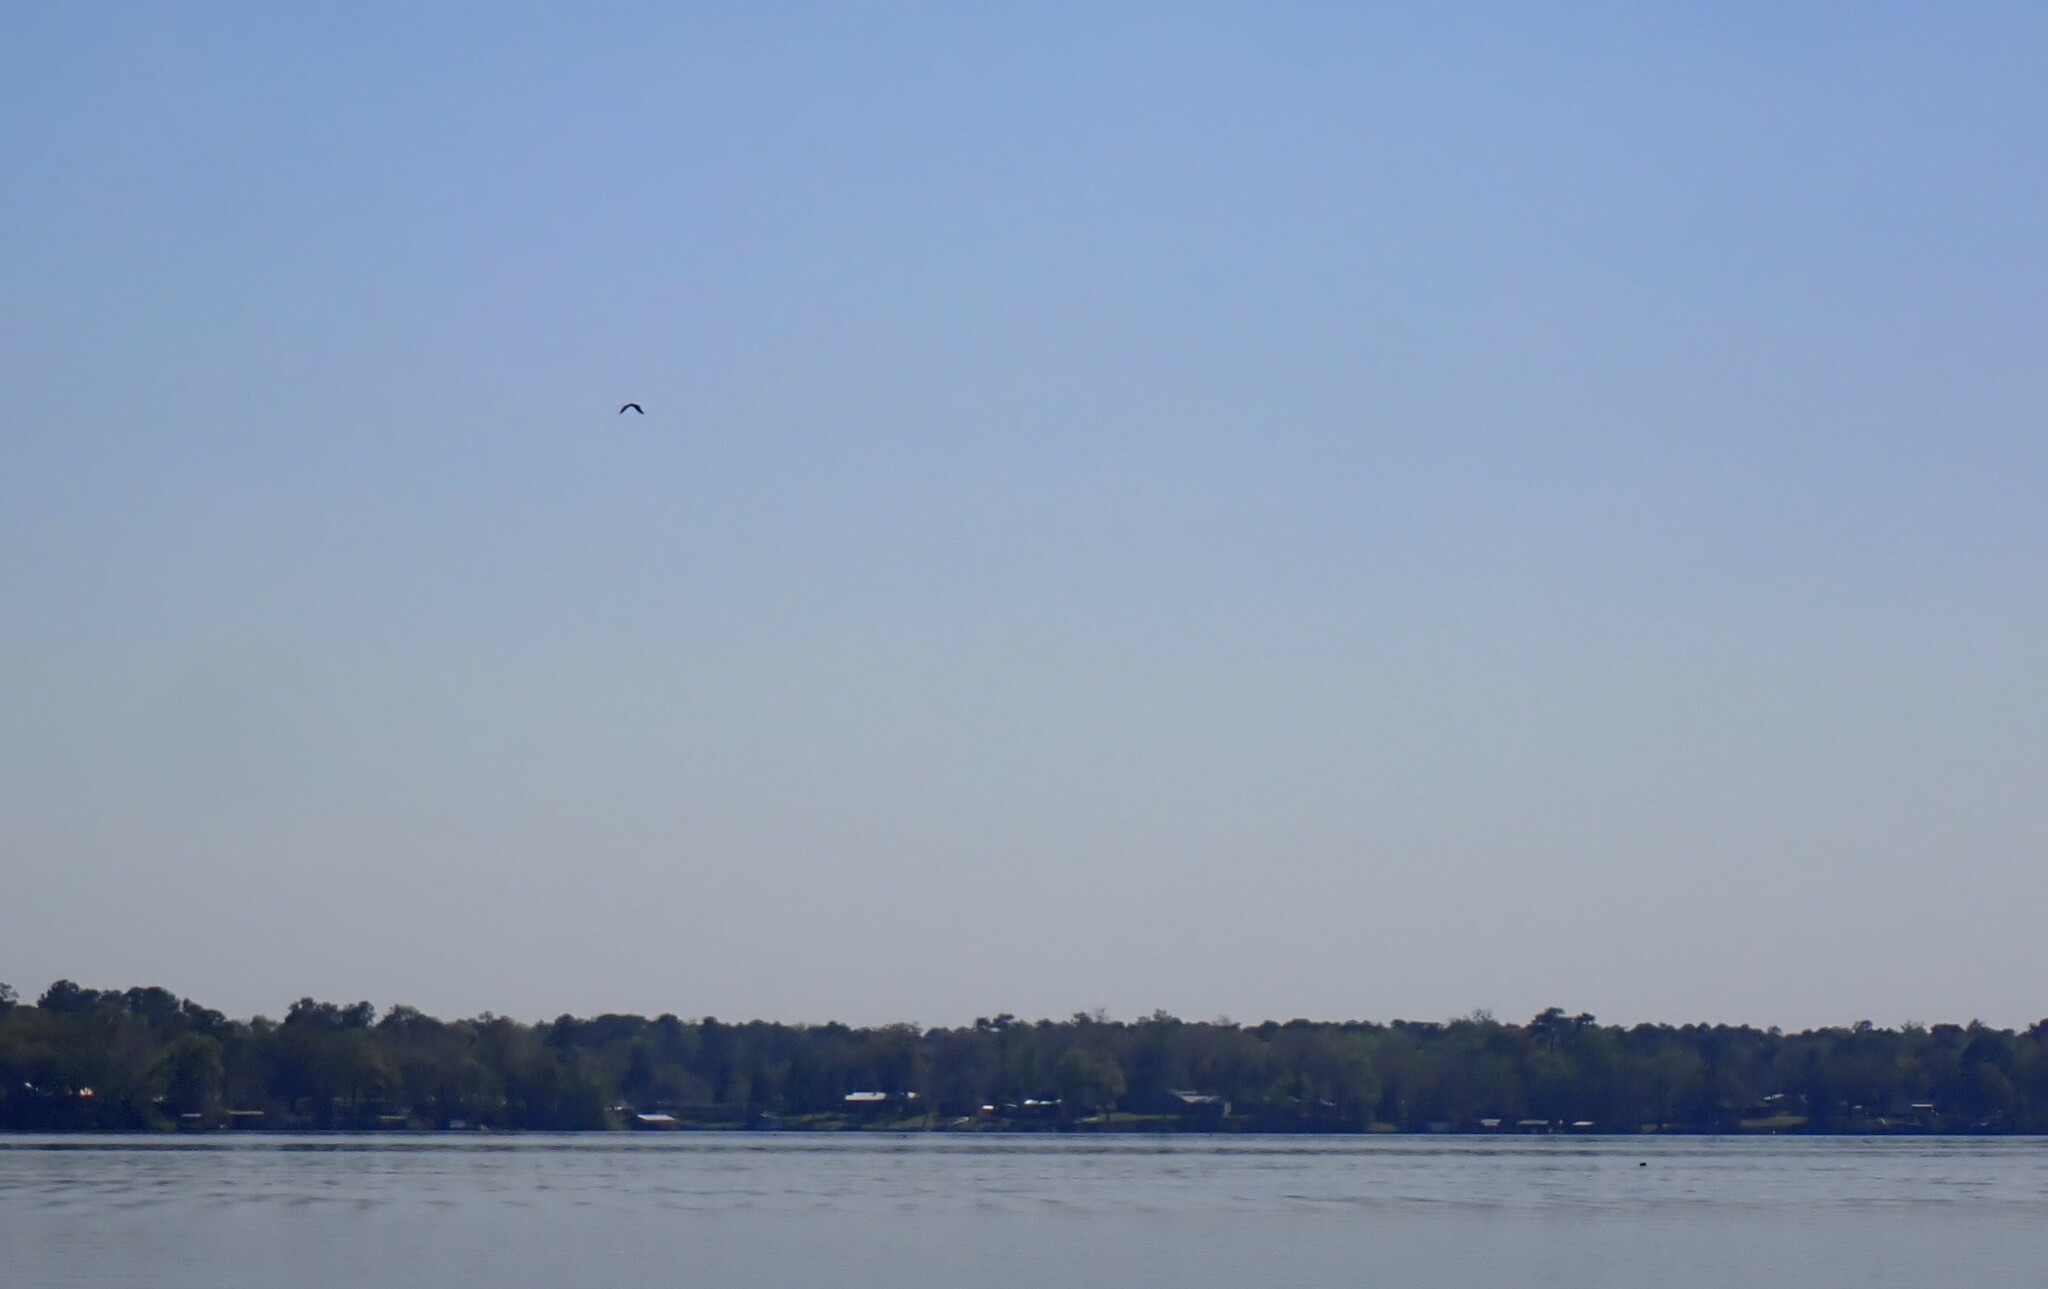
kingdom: Animalia
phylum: Chordata
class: Aves
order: Accipitriformes
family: Accipitridae
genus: Haliaeetus
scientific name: Haliaeetus leucocephalus
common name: Bald eagle
